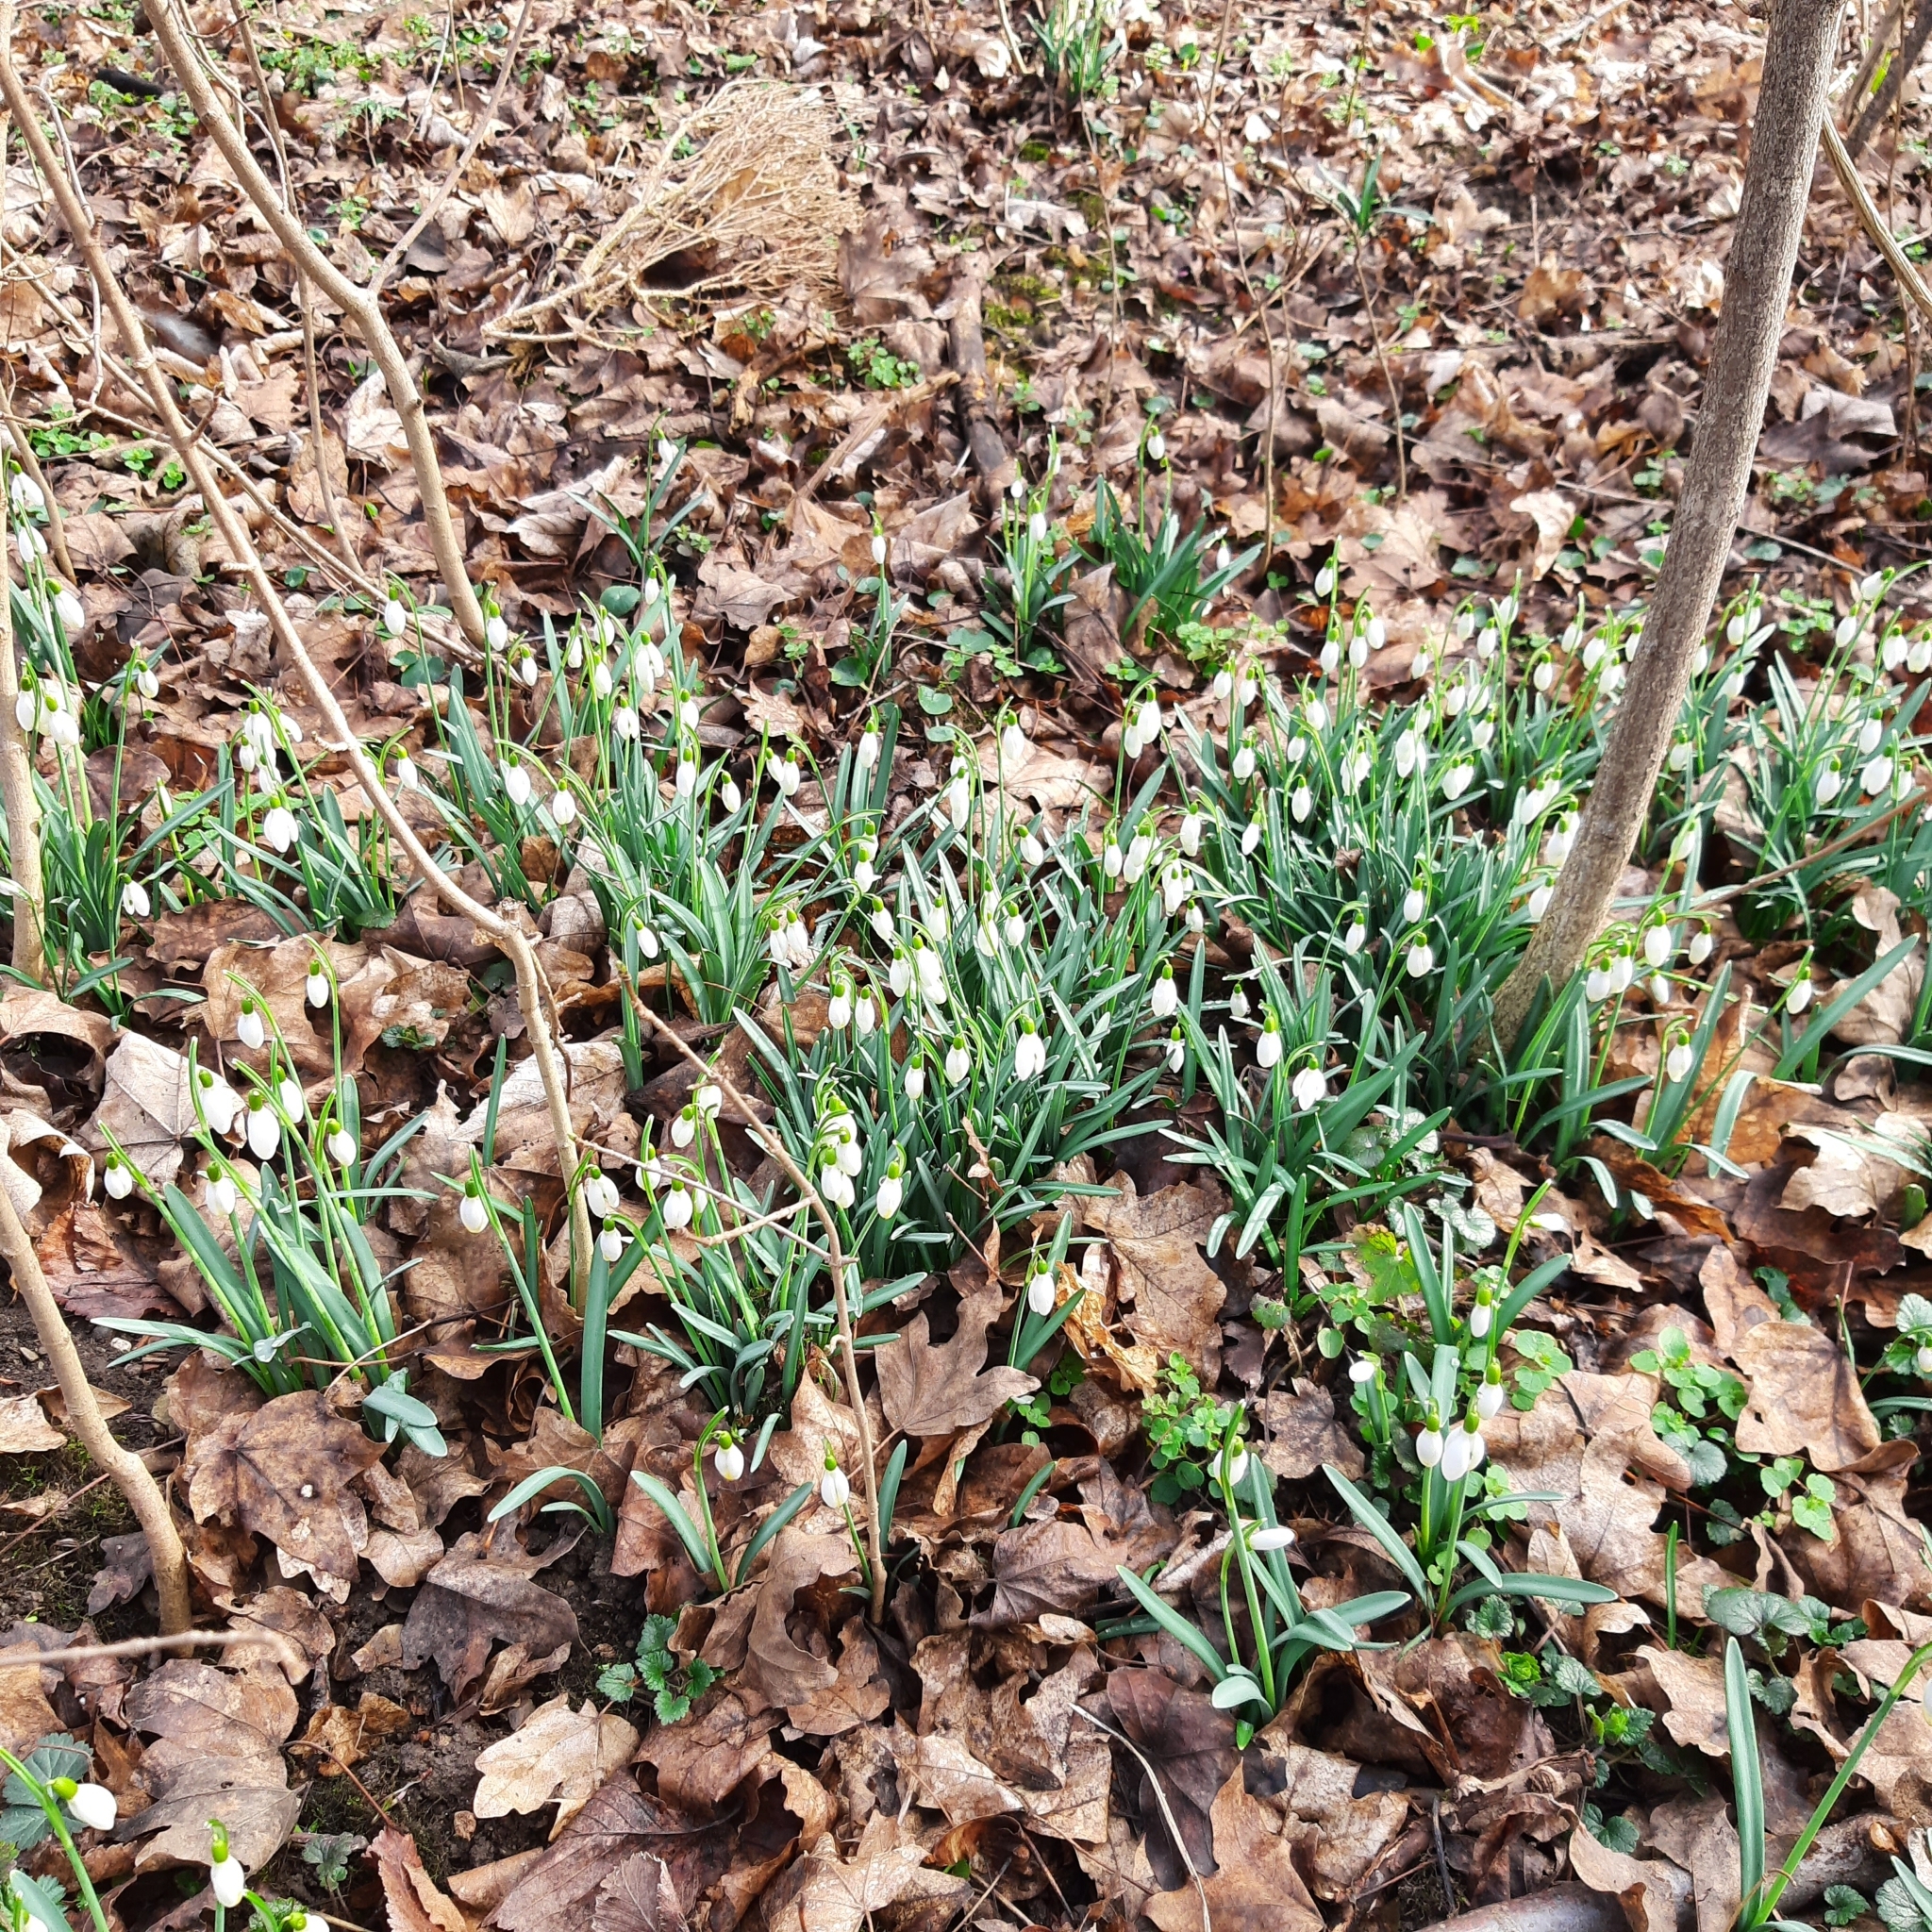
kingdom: Plantae
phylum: Tracheophyta
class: Liliopsida
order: Asparagales
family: Amaryllidaceae
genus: Galanthus
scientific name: Galanthus nivalis
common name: Snowdrop
